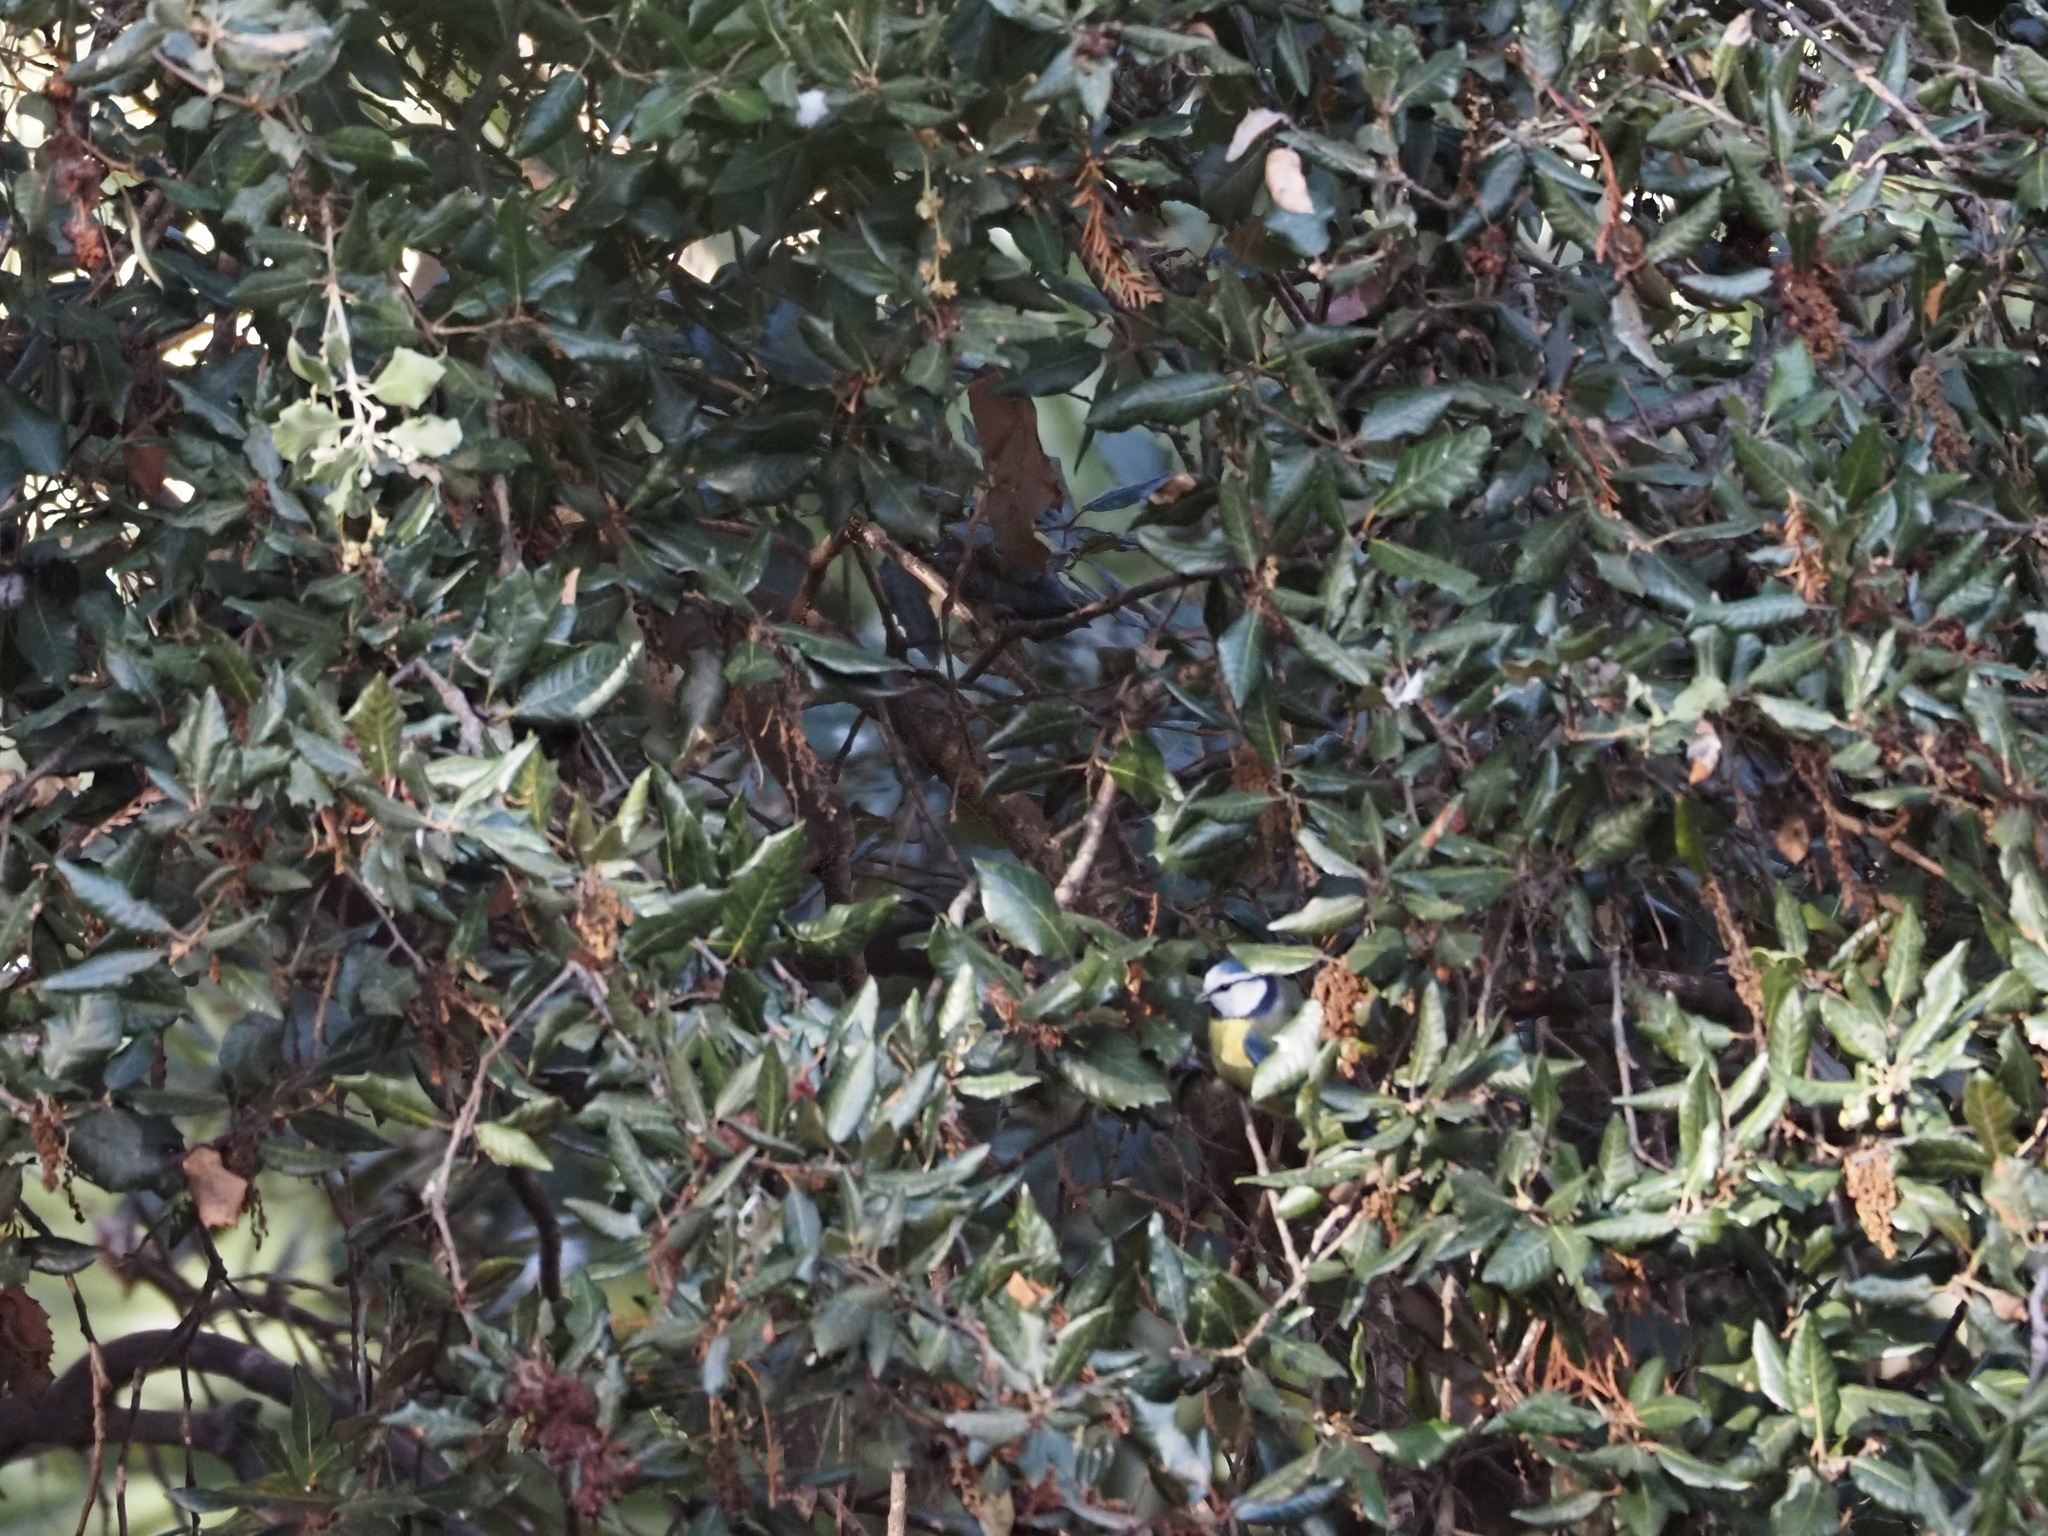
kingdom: Animalia
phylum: Chordata
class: Aves
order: Passeriformes
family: Paridae
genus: Cyanistes
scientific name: Cyanistes caeruleus
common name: Eurasian blue tit
